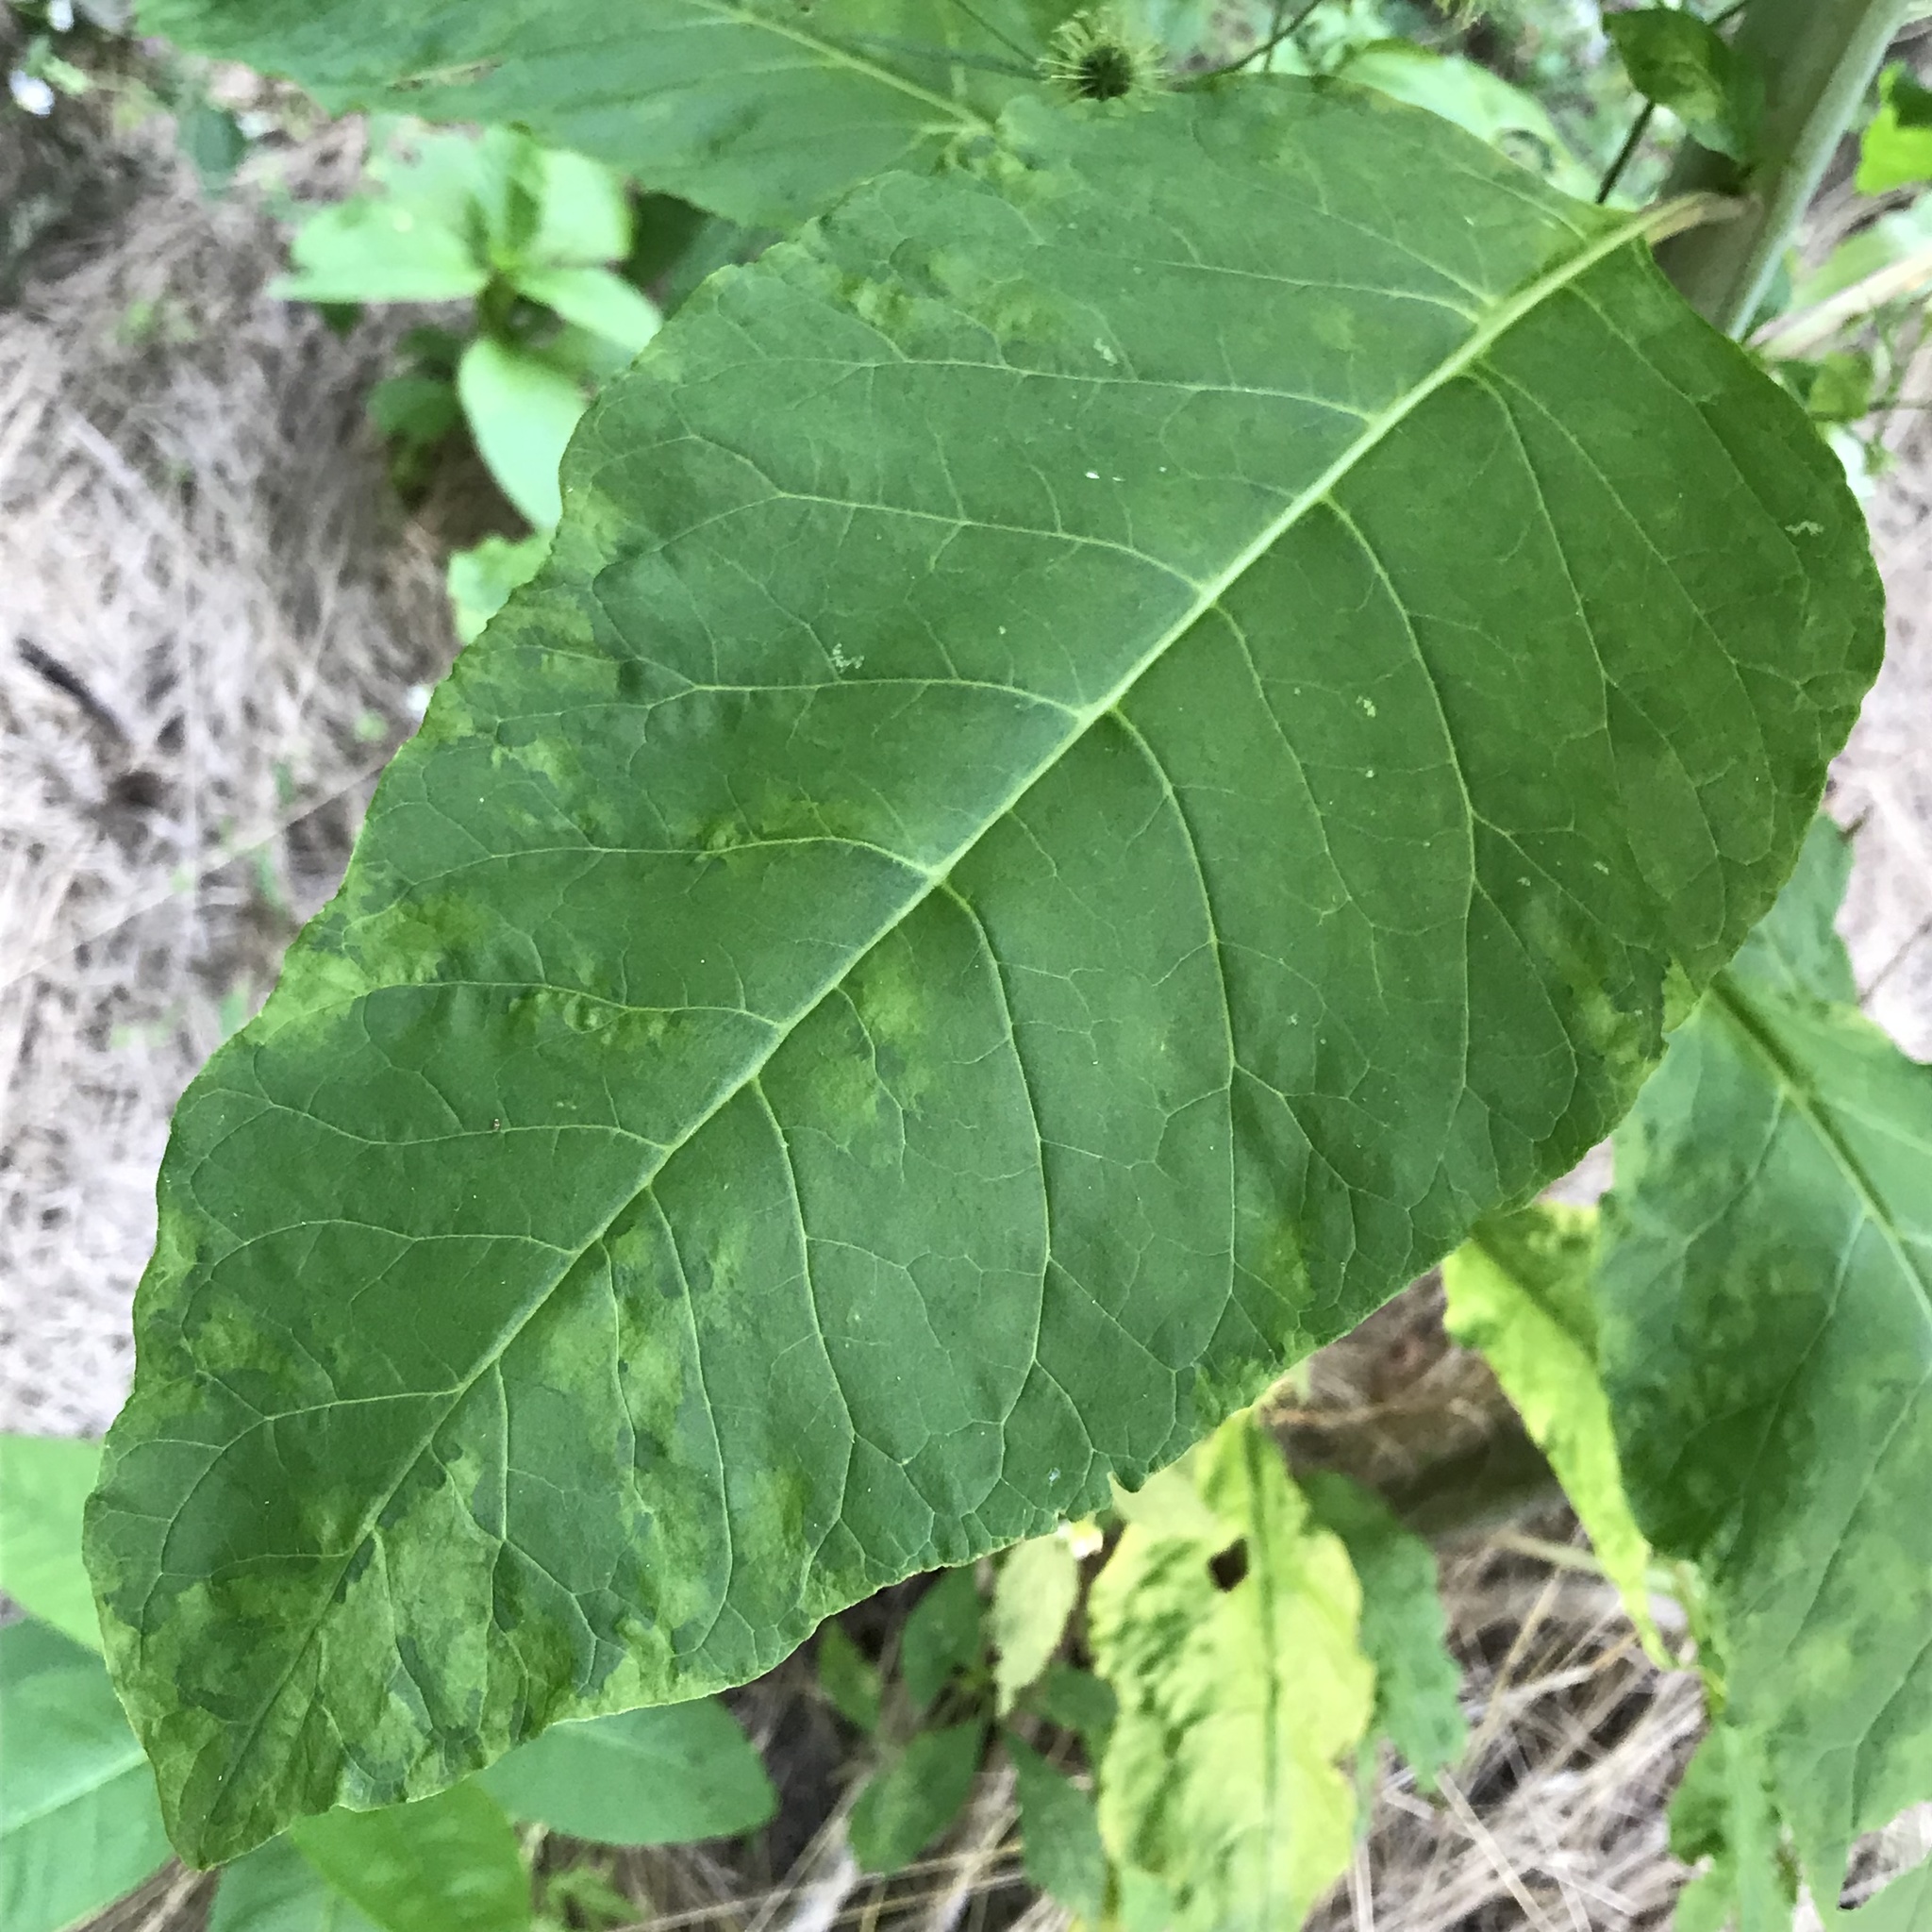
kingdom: Plantae
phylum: Tracheophyta
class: Magnoliopsida
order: Caryophyllales
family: Phytolaccaceae
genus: Phytolacca
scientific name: Phytolacca americana
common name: American pokeweed
